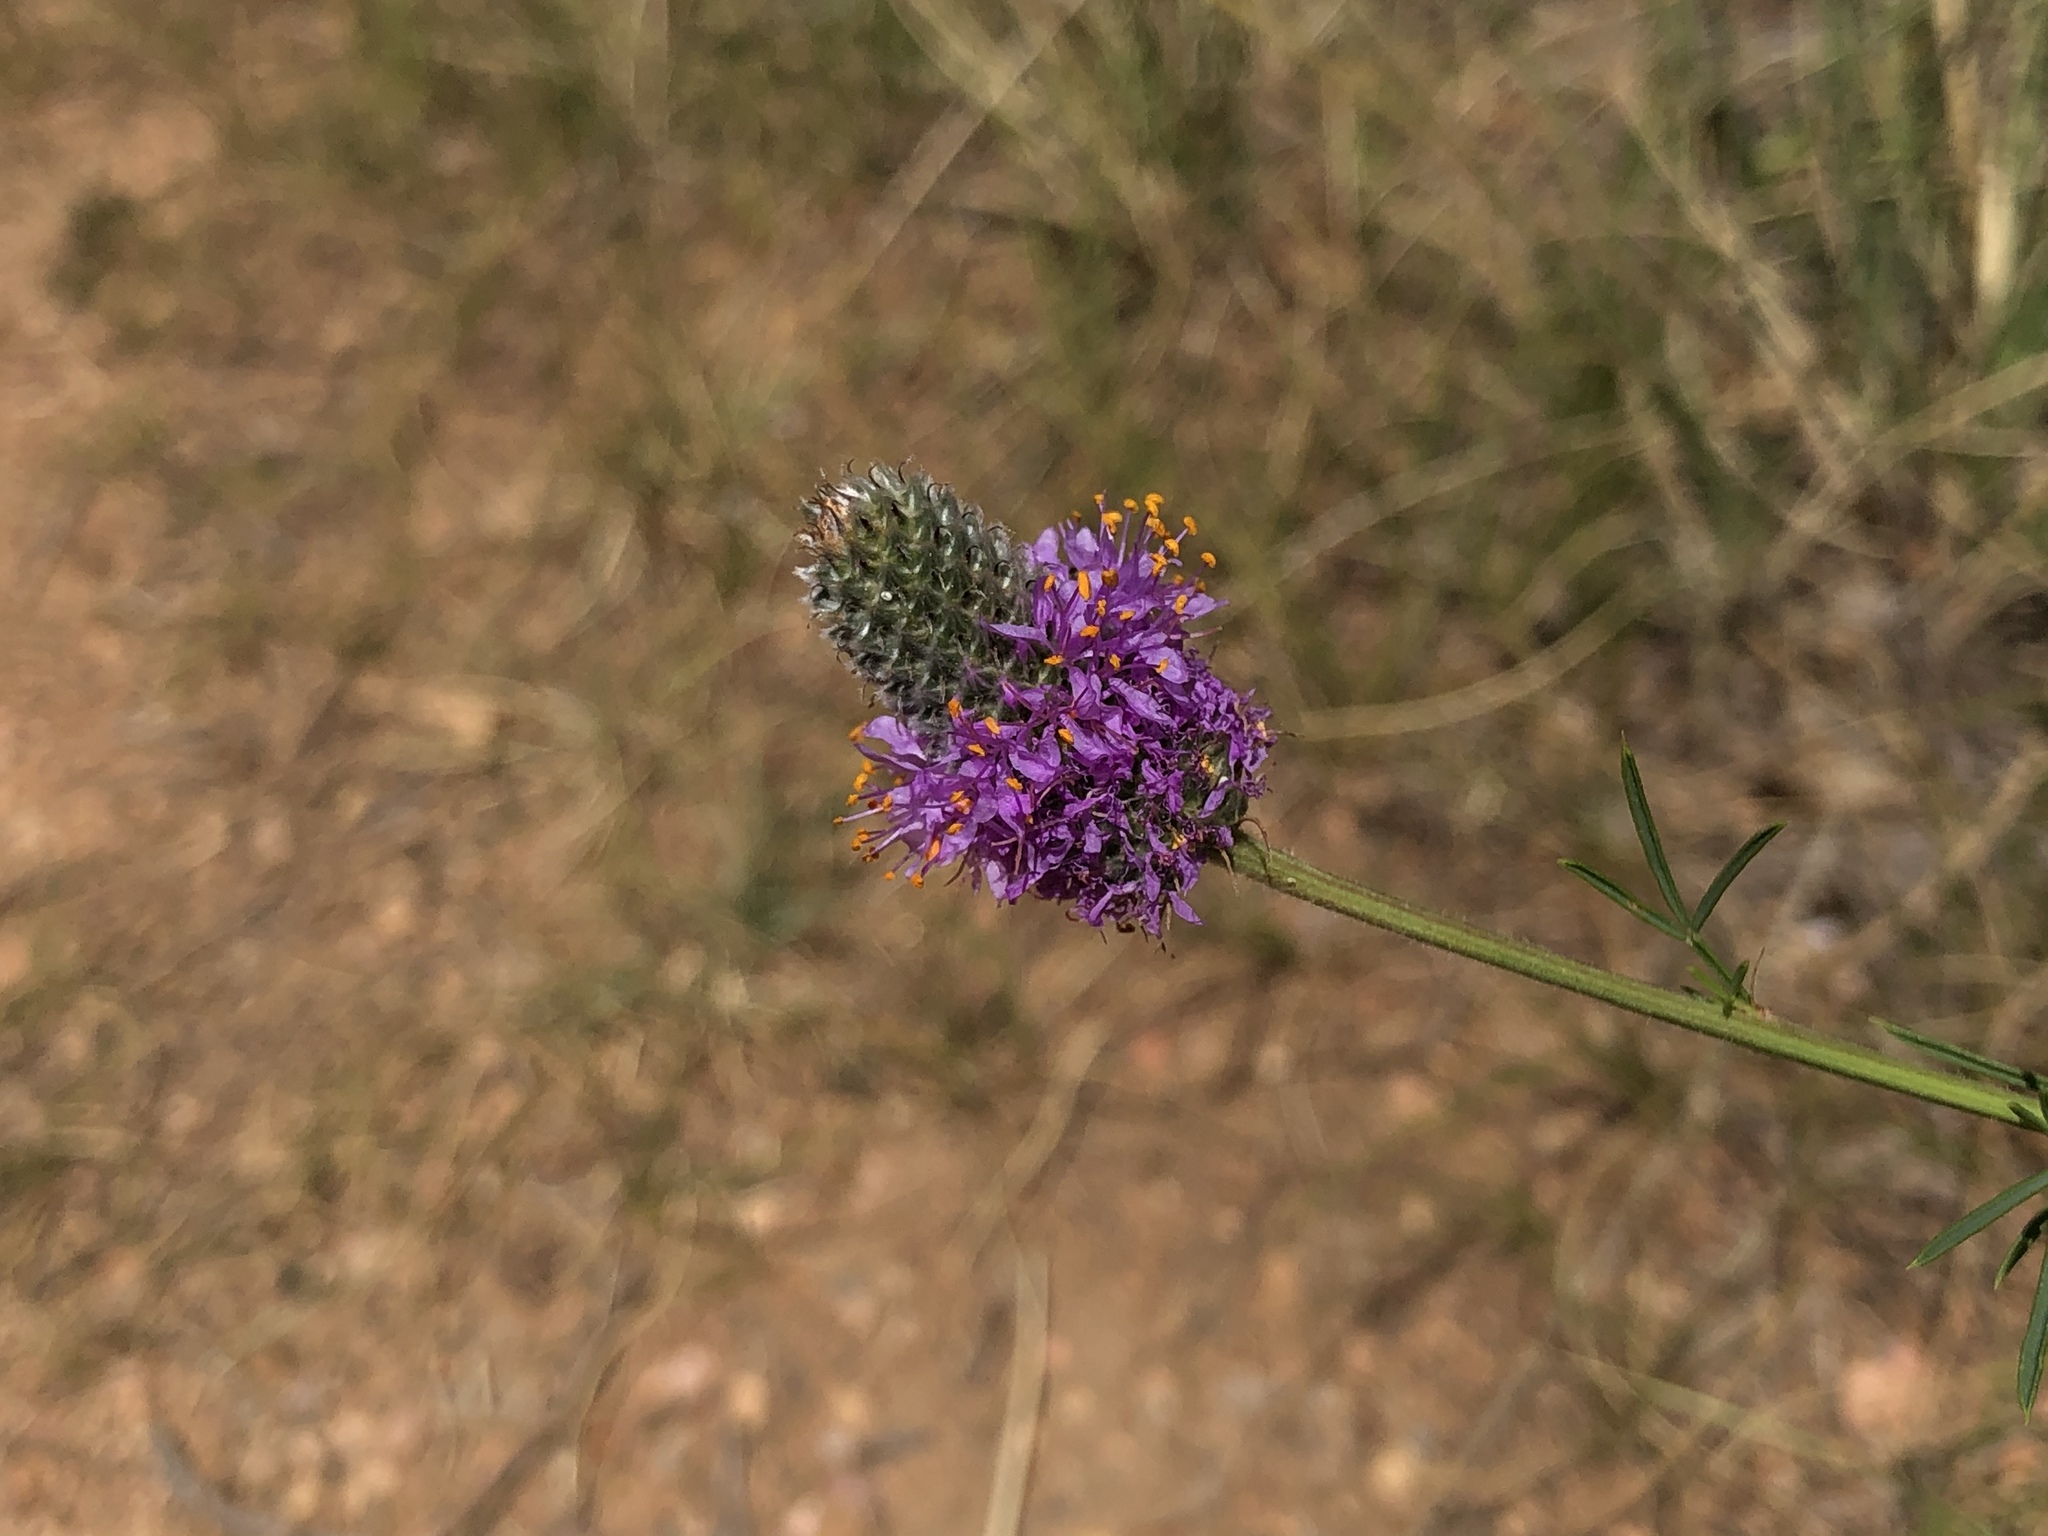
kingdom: Plantae
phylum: Tracheophyta
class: Magnoliopsida
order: Fabales
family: Fabaceae
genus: Dalea
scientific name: Dalea purpurea
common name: Purple prairie-clover
